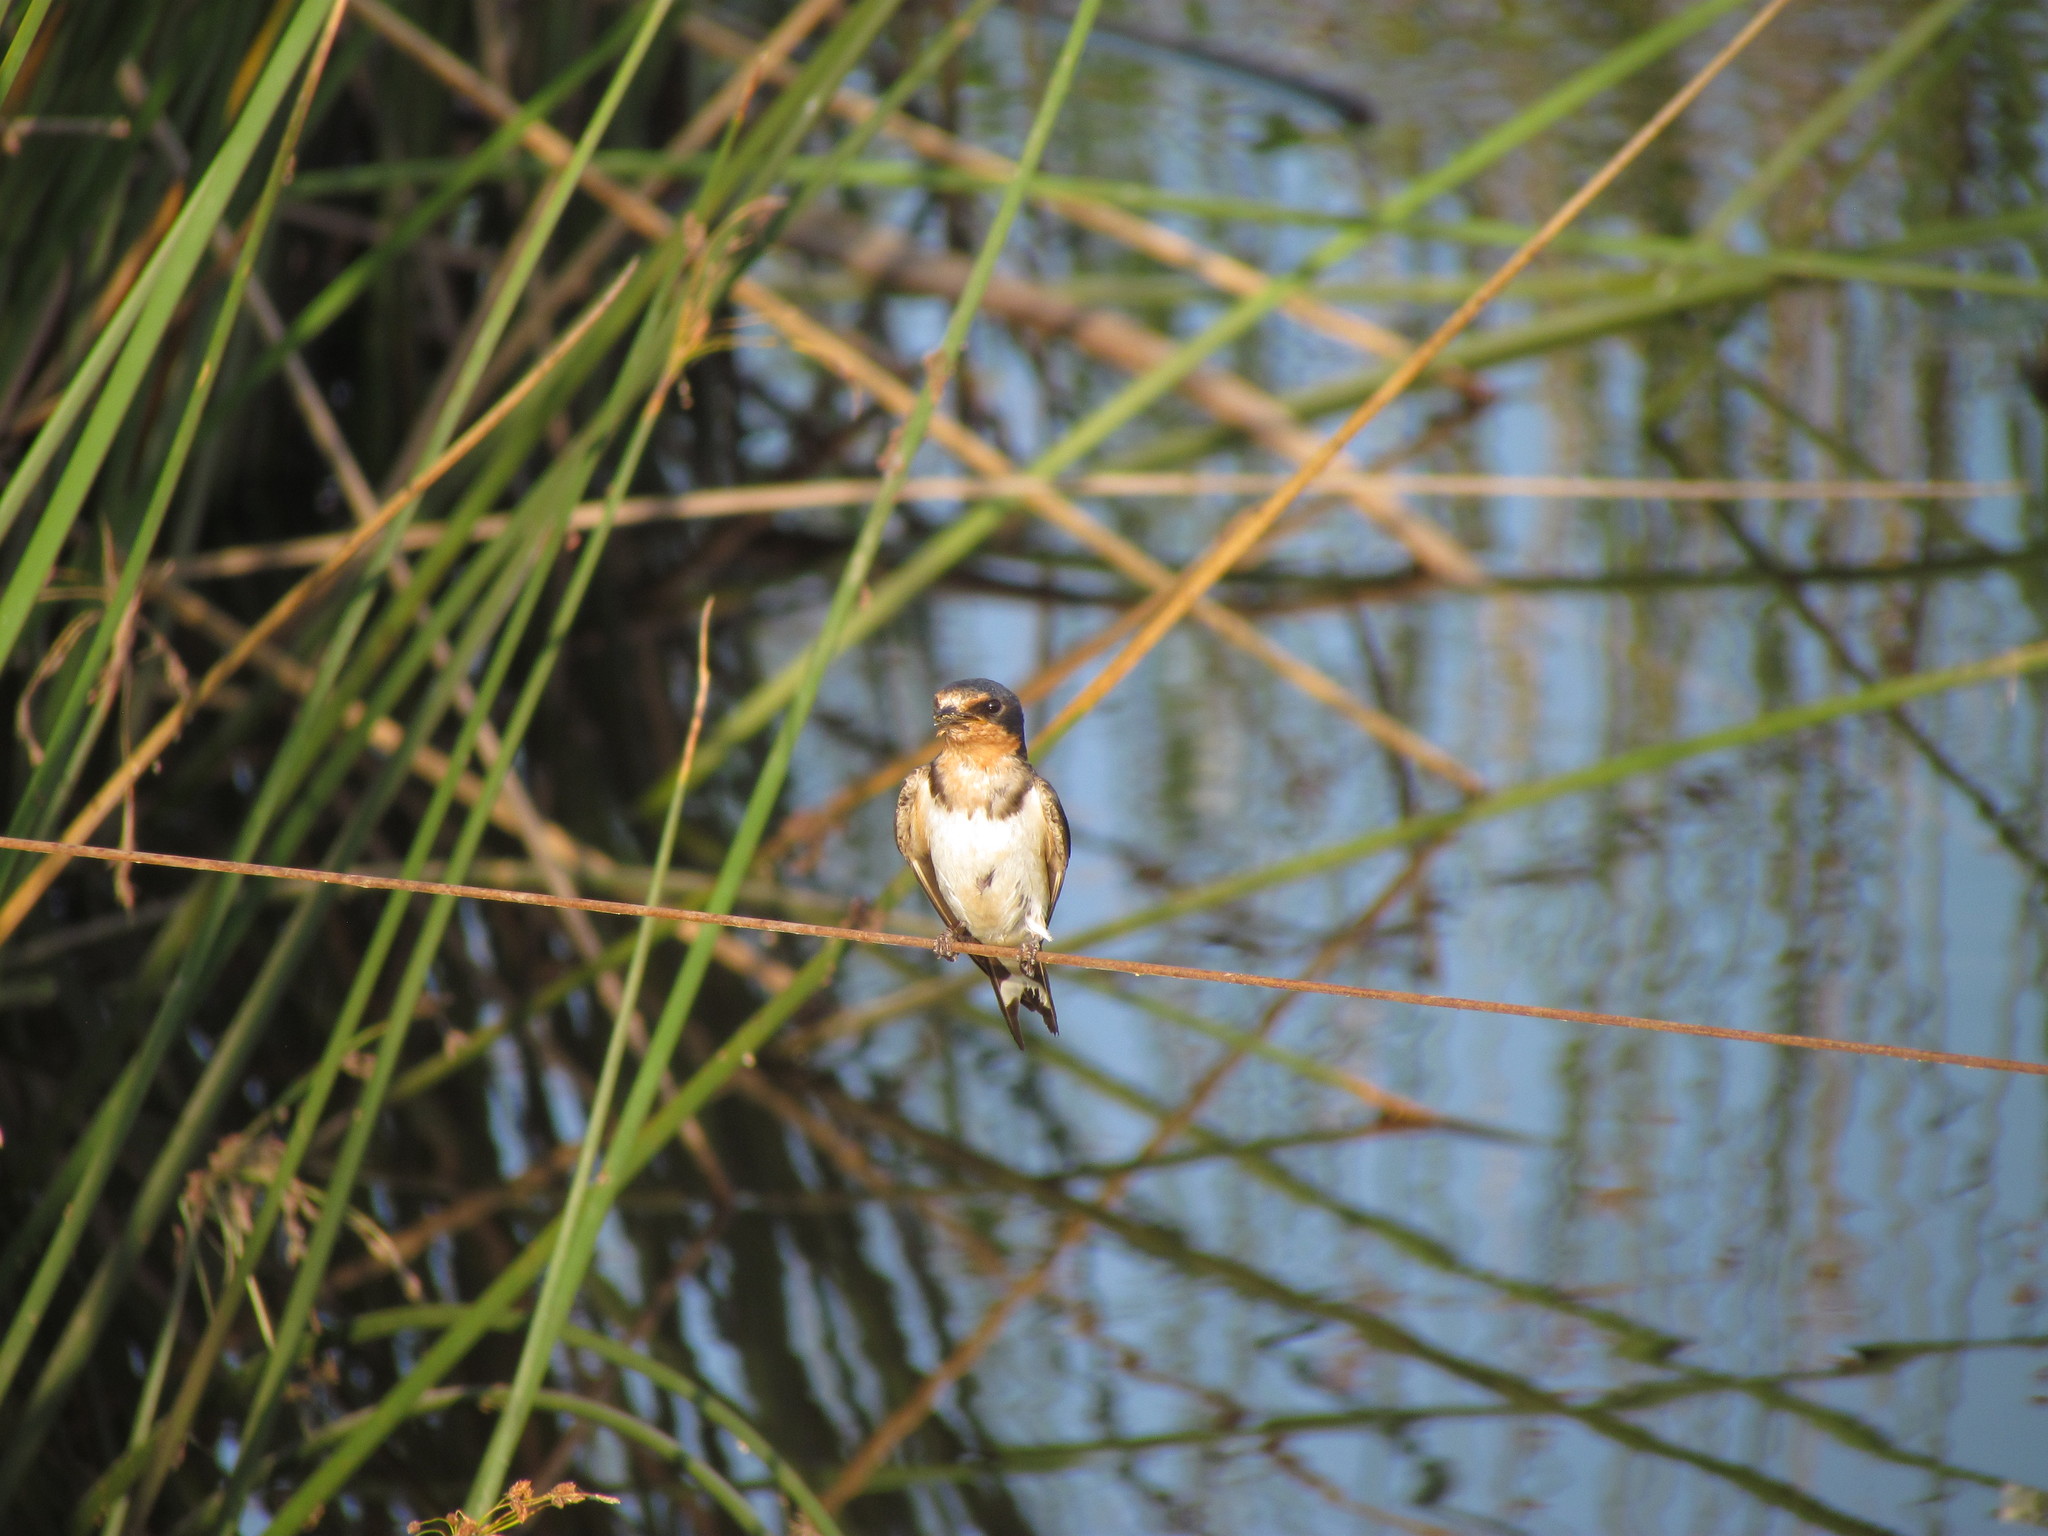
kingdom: Animalia
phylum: Chordata
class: Aves
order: Passeriformes
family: Hirundinidae
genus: Hirundo
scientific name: Hirundo rustica
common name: Barn swallow
